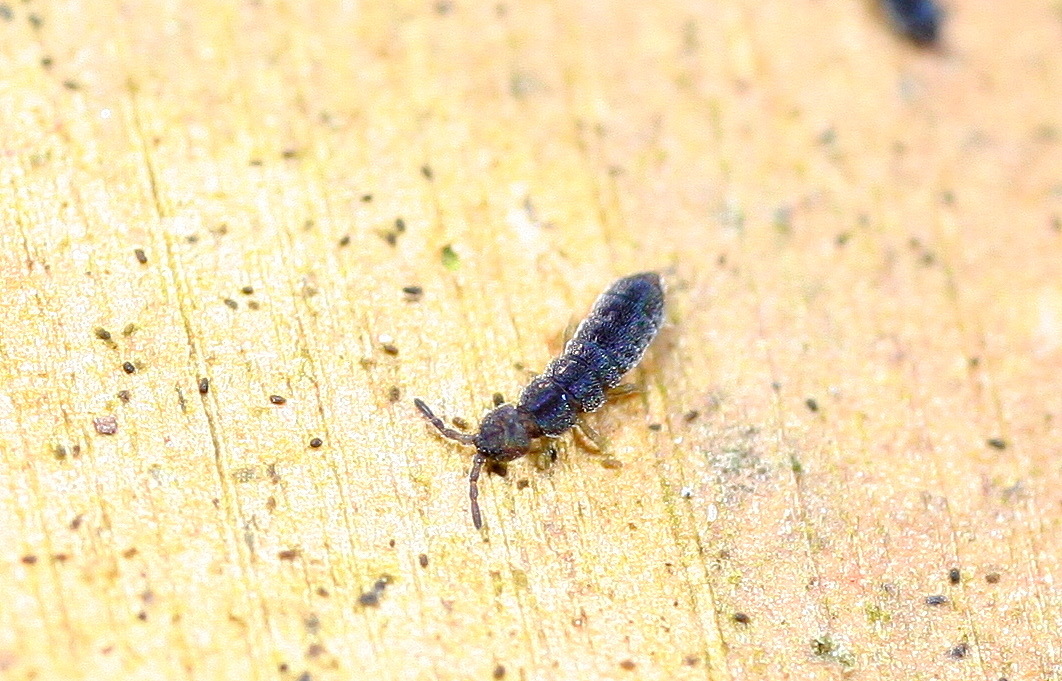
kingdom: Animalia
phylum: Arthropoda
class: Collembola
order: Entomobryomorpha
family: Isotomidae
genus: Vertagopus
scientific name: Vertagopus asiaticus
